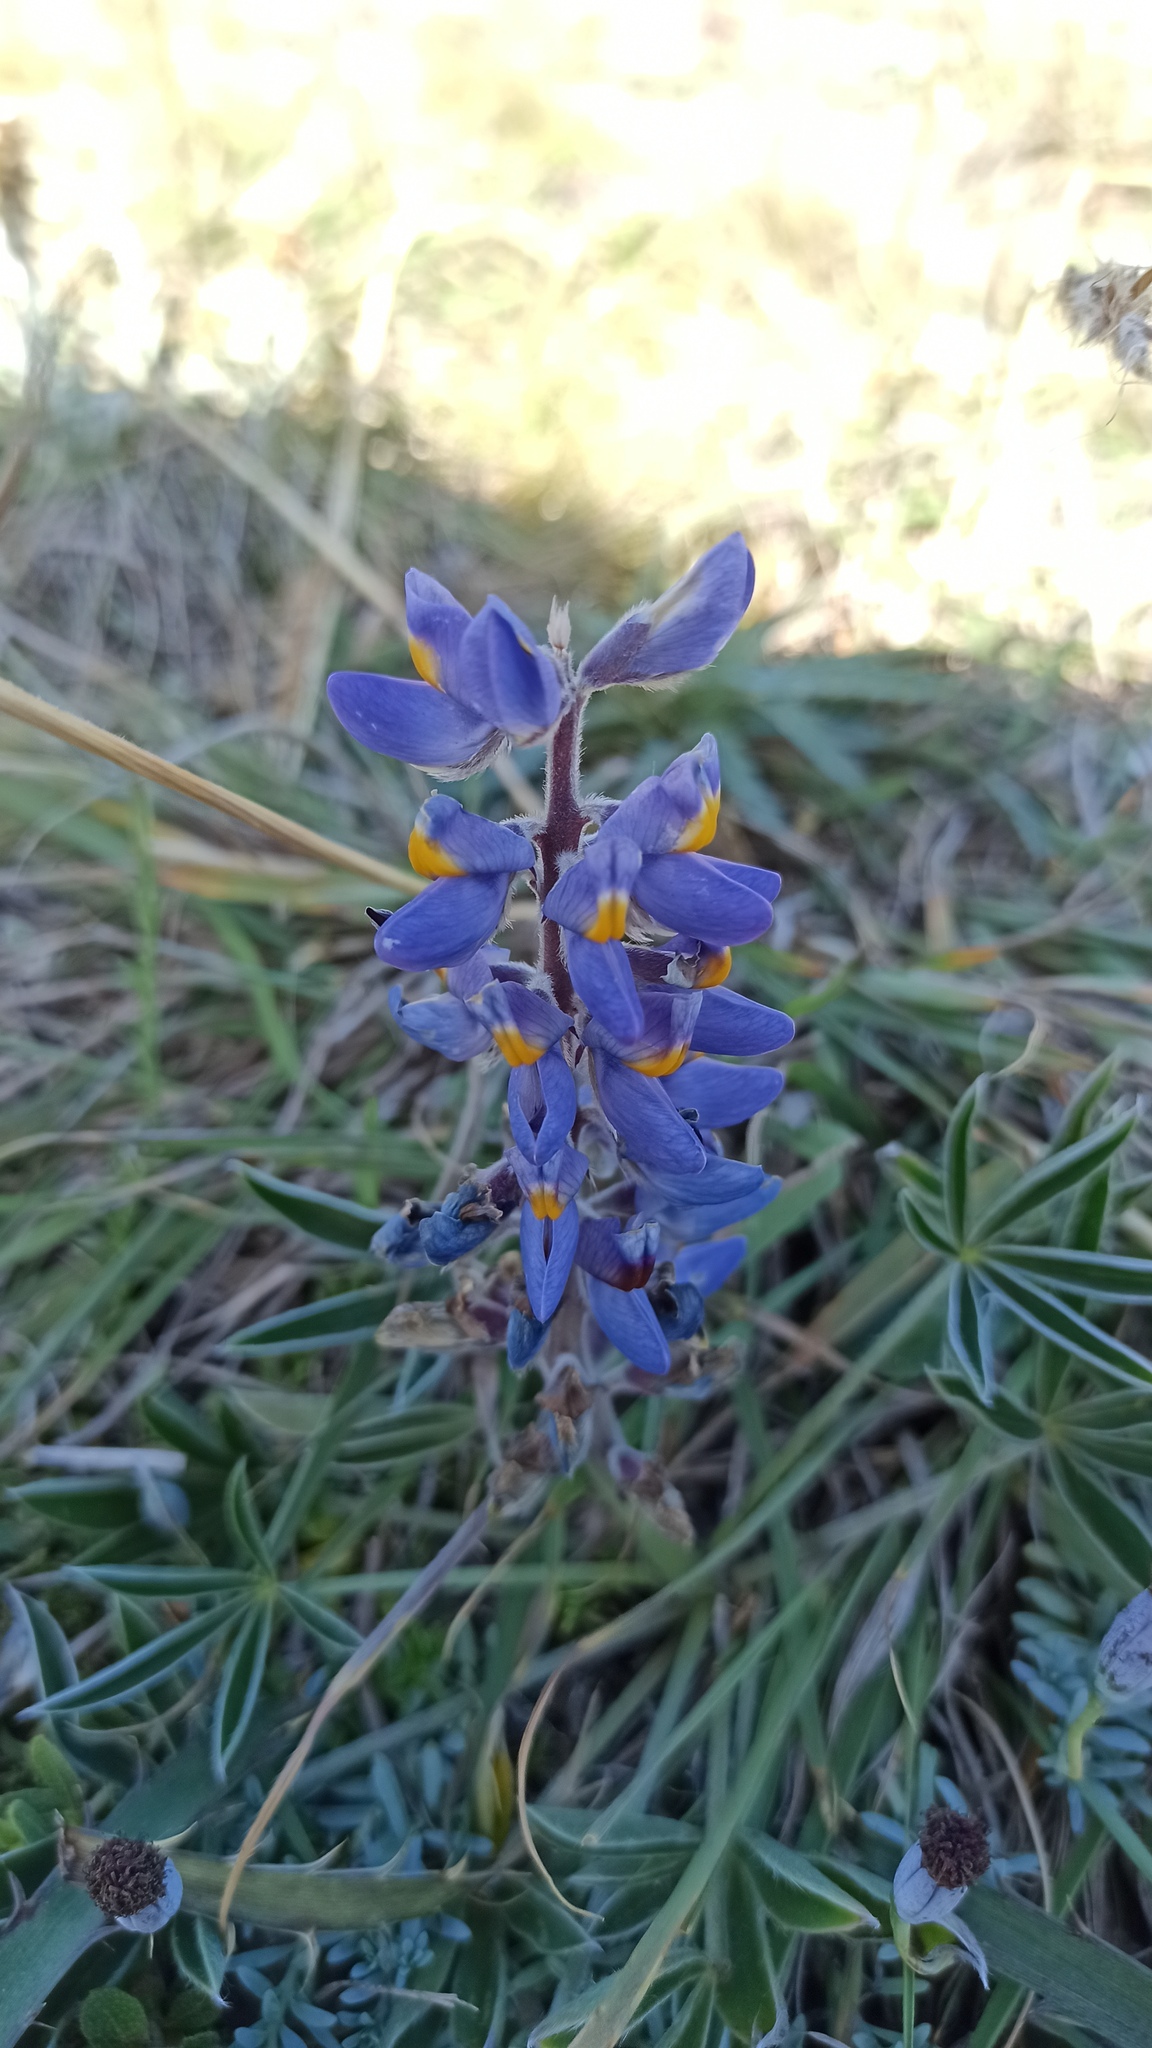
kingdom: Plantae
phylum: Tracheophyta
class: Magnoliopsida
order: Fabales
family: Fabaceae
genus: Lupinus
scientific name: Lupinus multiflorus
